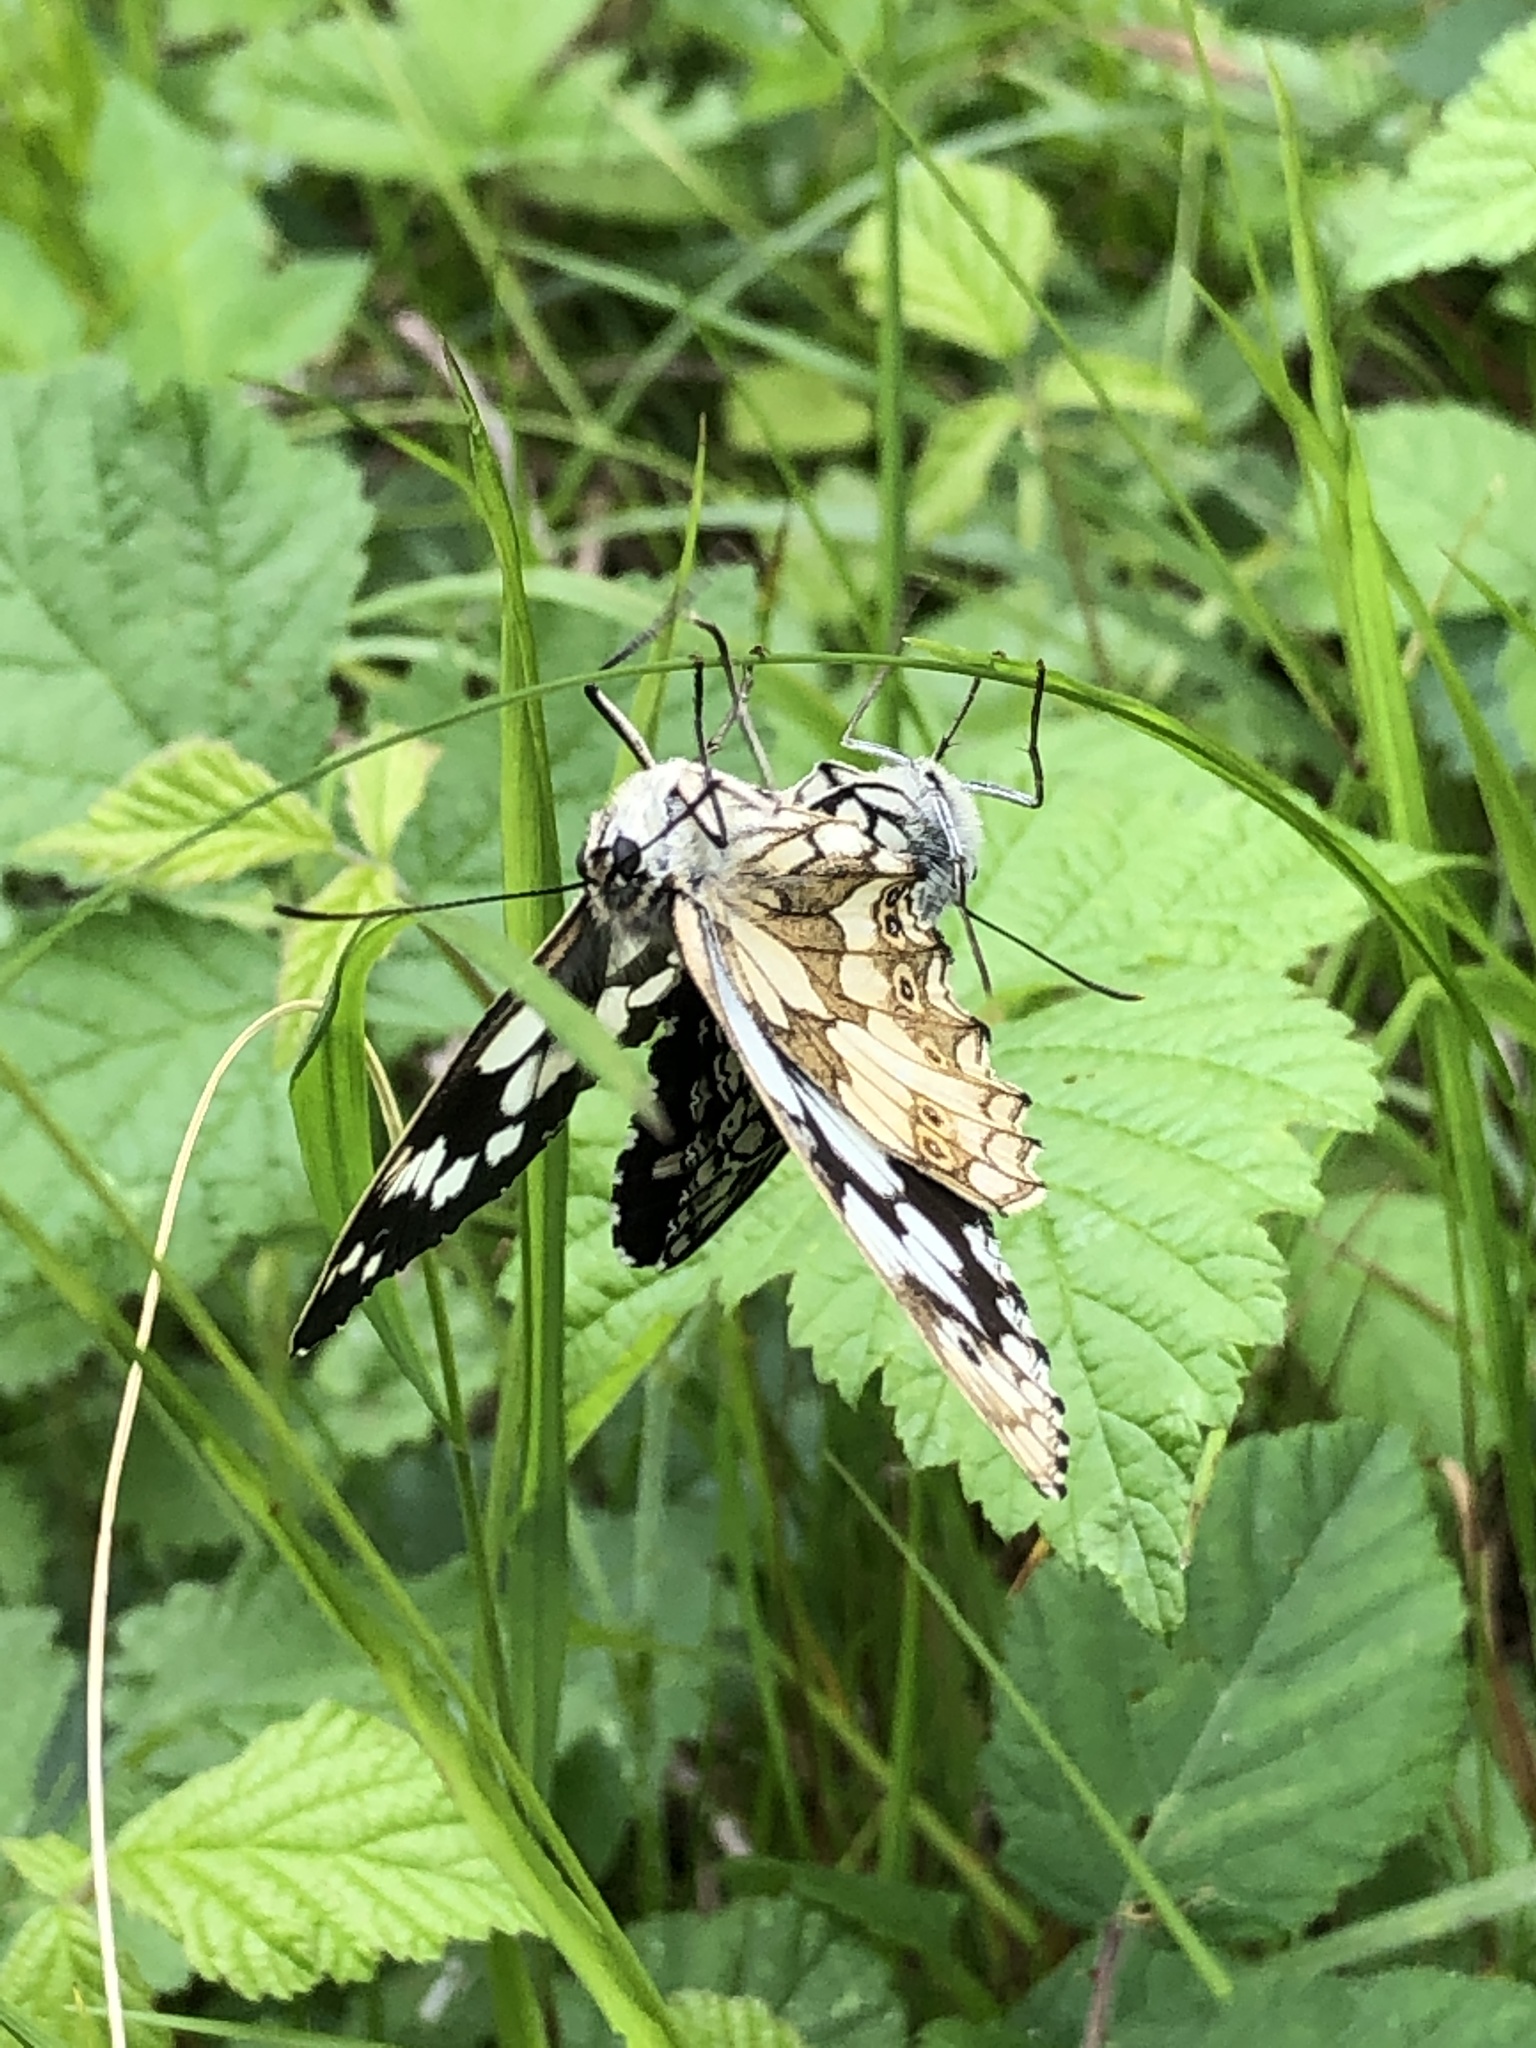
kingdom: Animalia
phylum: Arthropoda
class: Insecta
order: Lepidoptera
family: Nymphalidae
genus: Melanargia
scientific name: Melanargia galathea
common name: Marbled white
